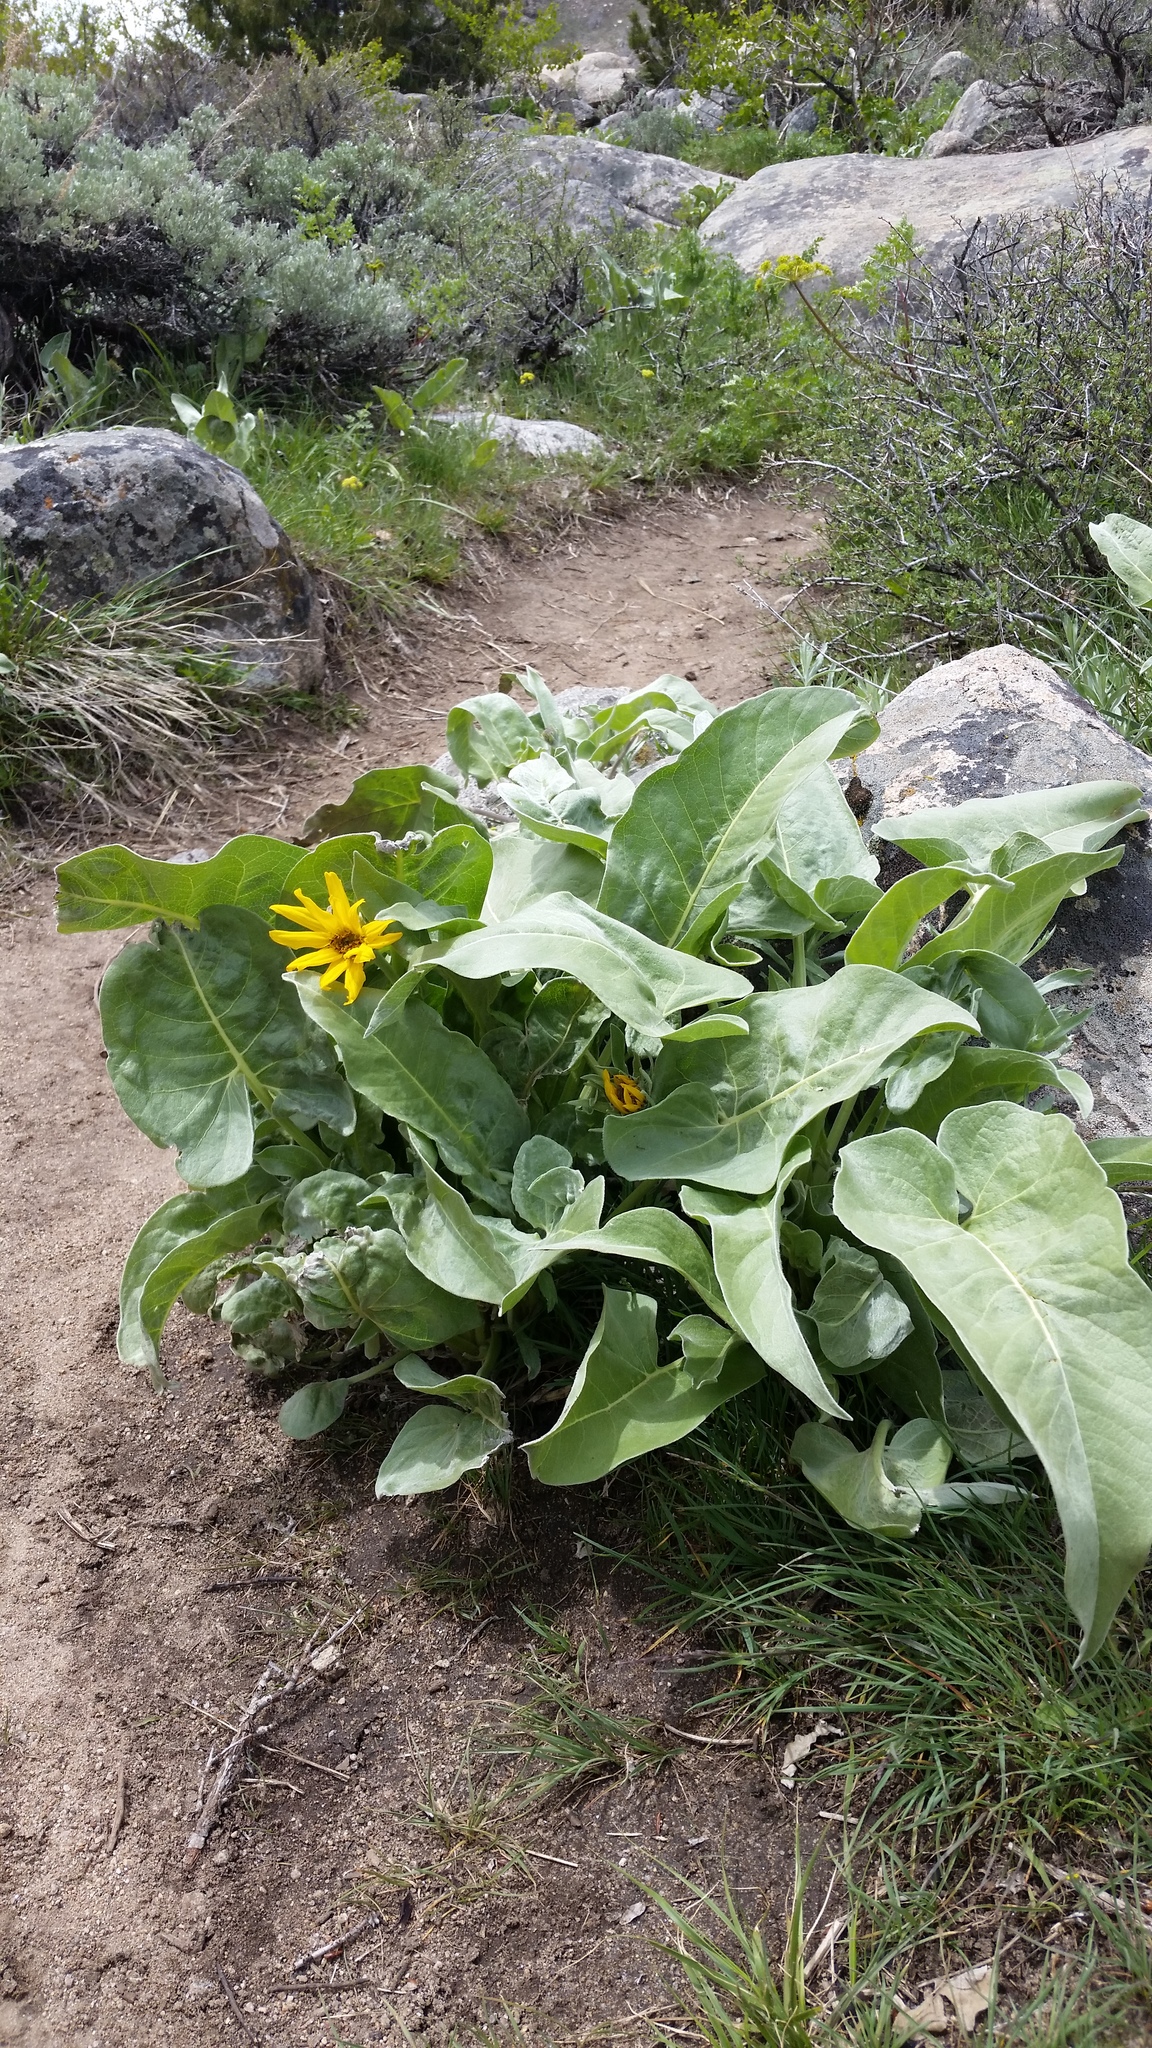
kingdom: Plantae
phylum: Tracheophyta
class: Magnoliopsida
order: Asterales
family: Asteraceae
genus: Wyethia
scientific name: Wyethia sagittata
